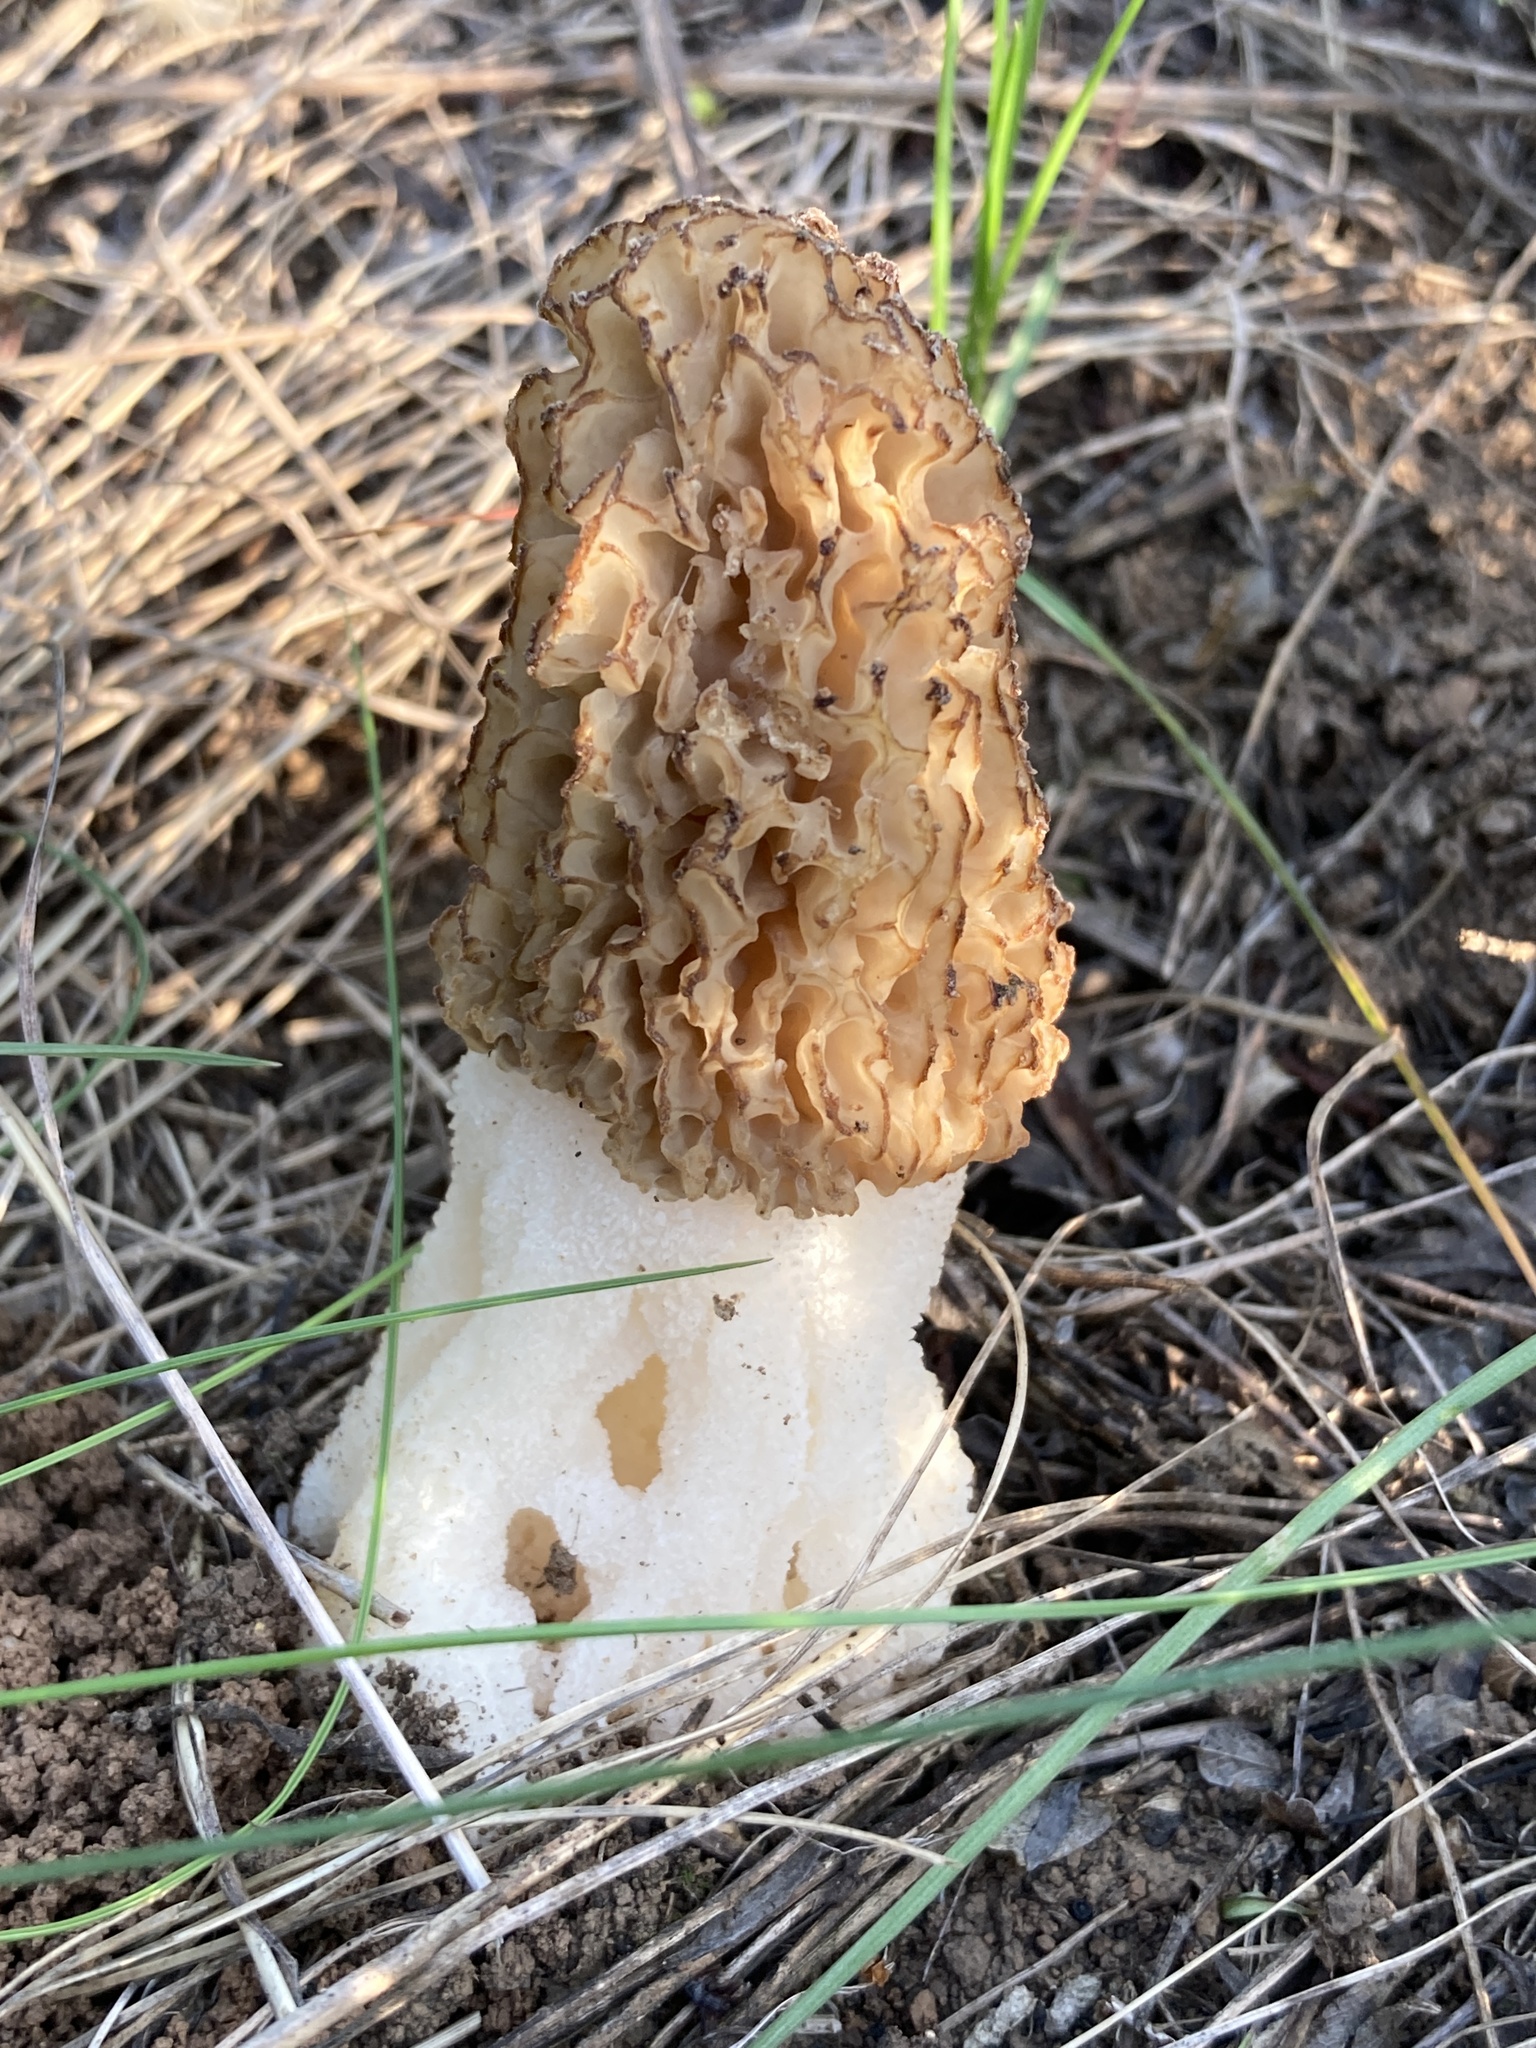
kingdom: Fungi
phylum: Ascomycota
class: Pezizomycetes
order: Pezizales
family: Morchellaceae
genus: Morchella
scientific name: Morchella steppicola
